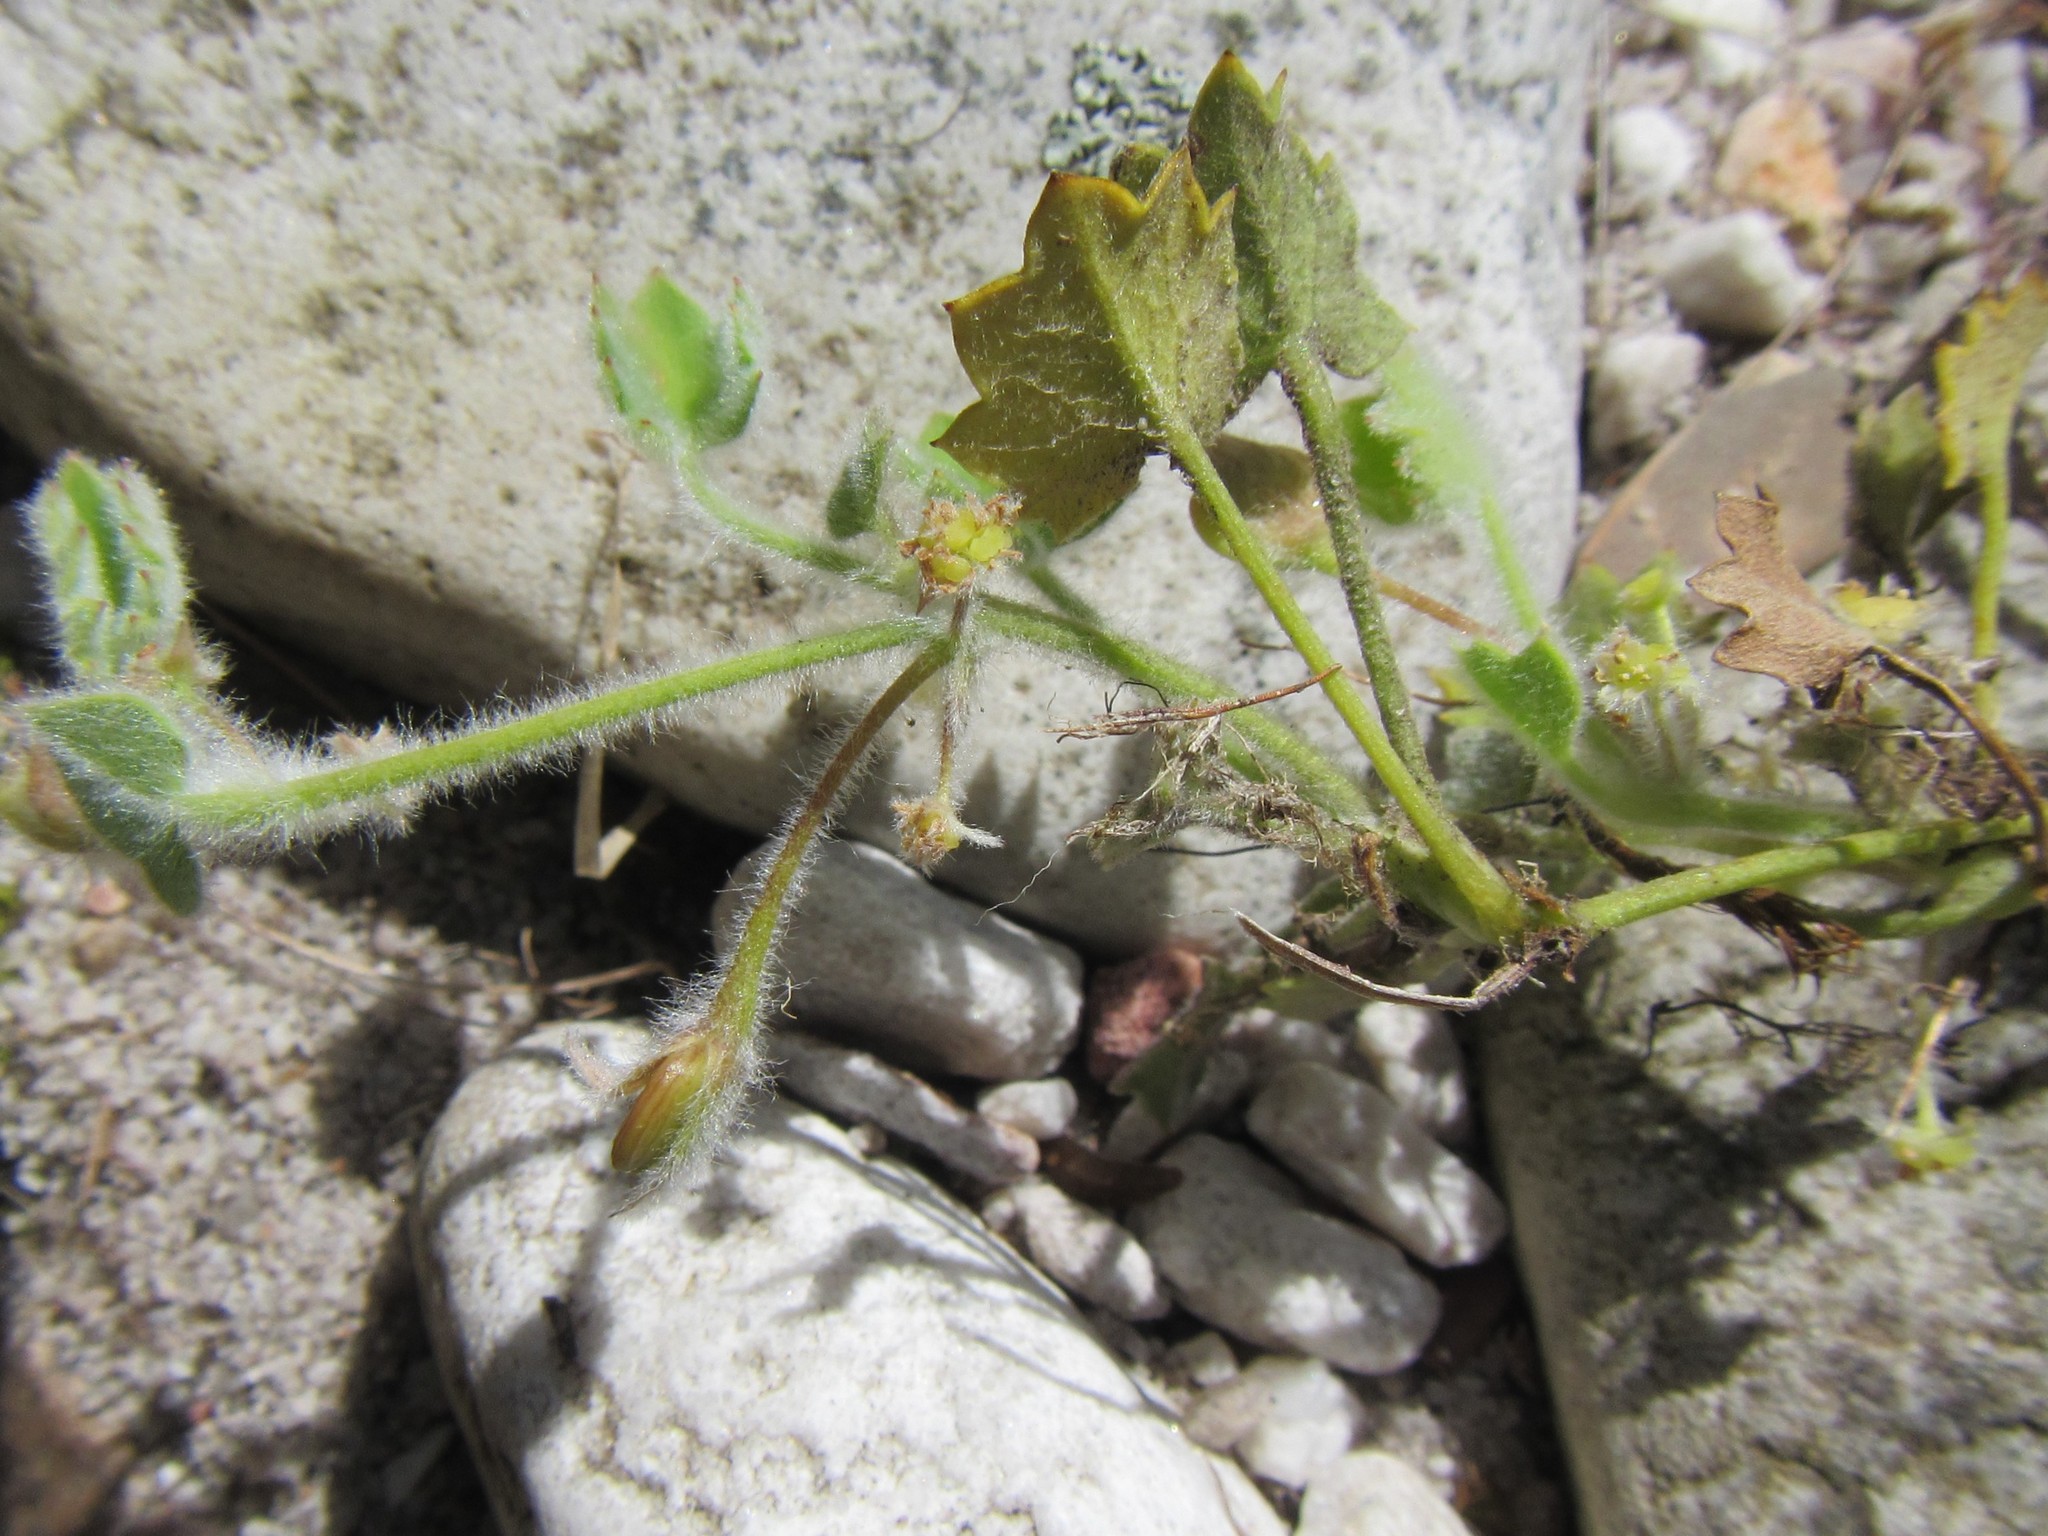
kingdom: Plantae
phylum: Tracheophyta
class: Magnoliopsida
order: Apiales
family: Apiaceae
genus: Centella
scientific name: Centella flexuosa
